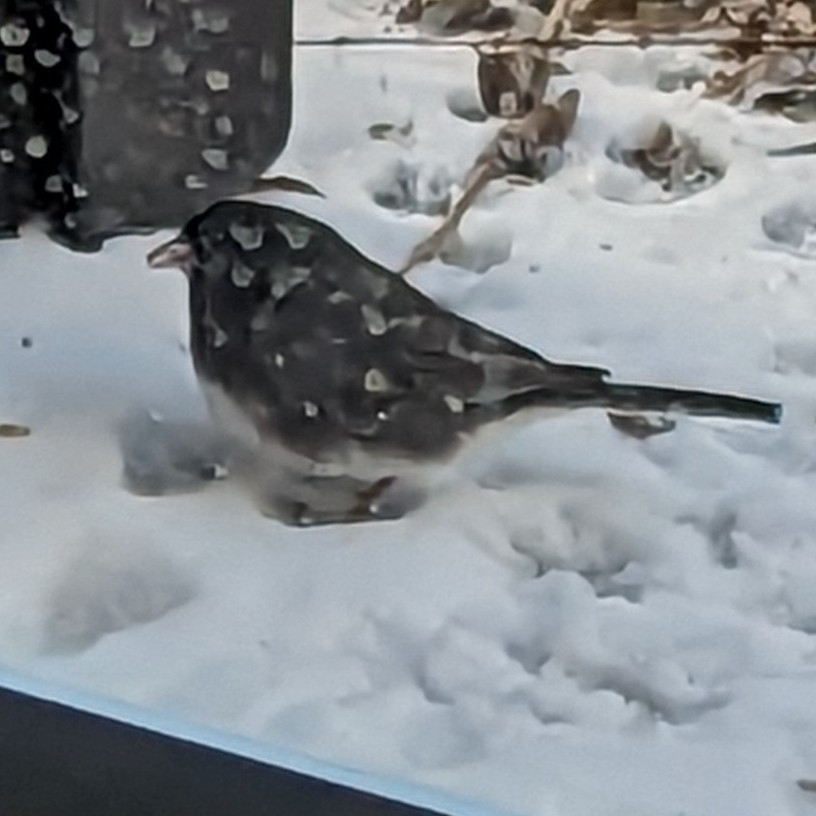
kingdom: Animalia
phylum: Chordata
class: Aves
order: Passeriformes
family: Passerellidae
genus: Junco
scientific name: Junco hyemalis
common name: Dark-eyed junco
